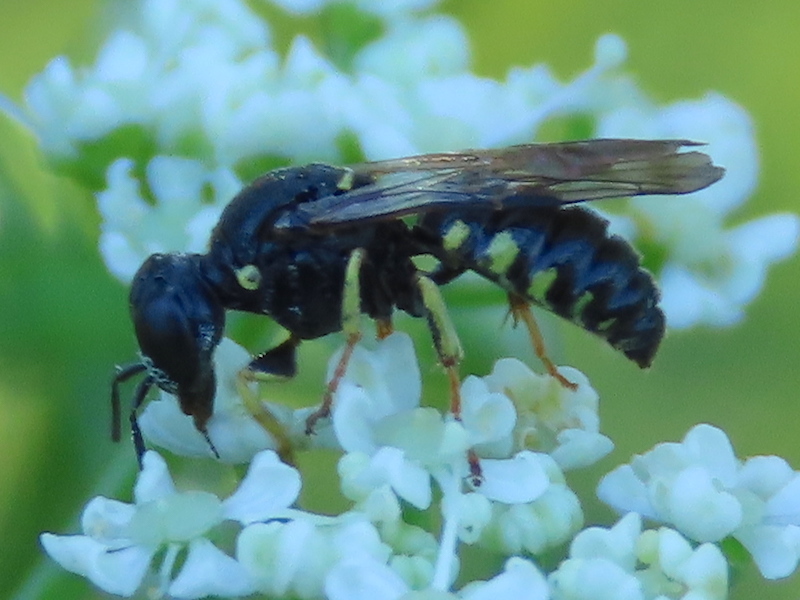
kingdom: Animalia
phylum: Arthropoda
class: Insecta
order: Hymenoptera
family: Crabronidae
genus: Anacrabro
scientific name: Anacrabro ocellatus
